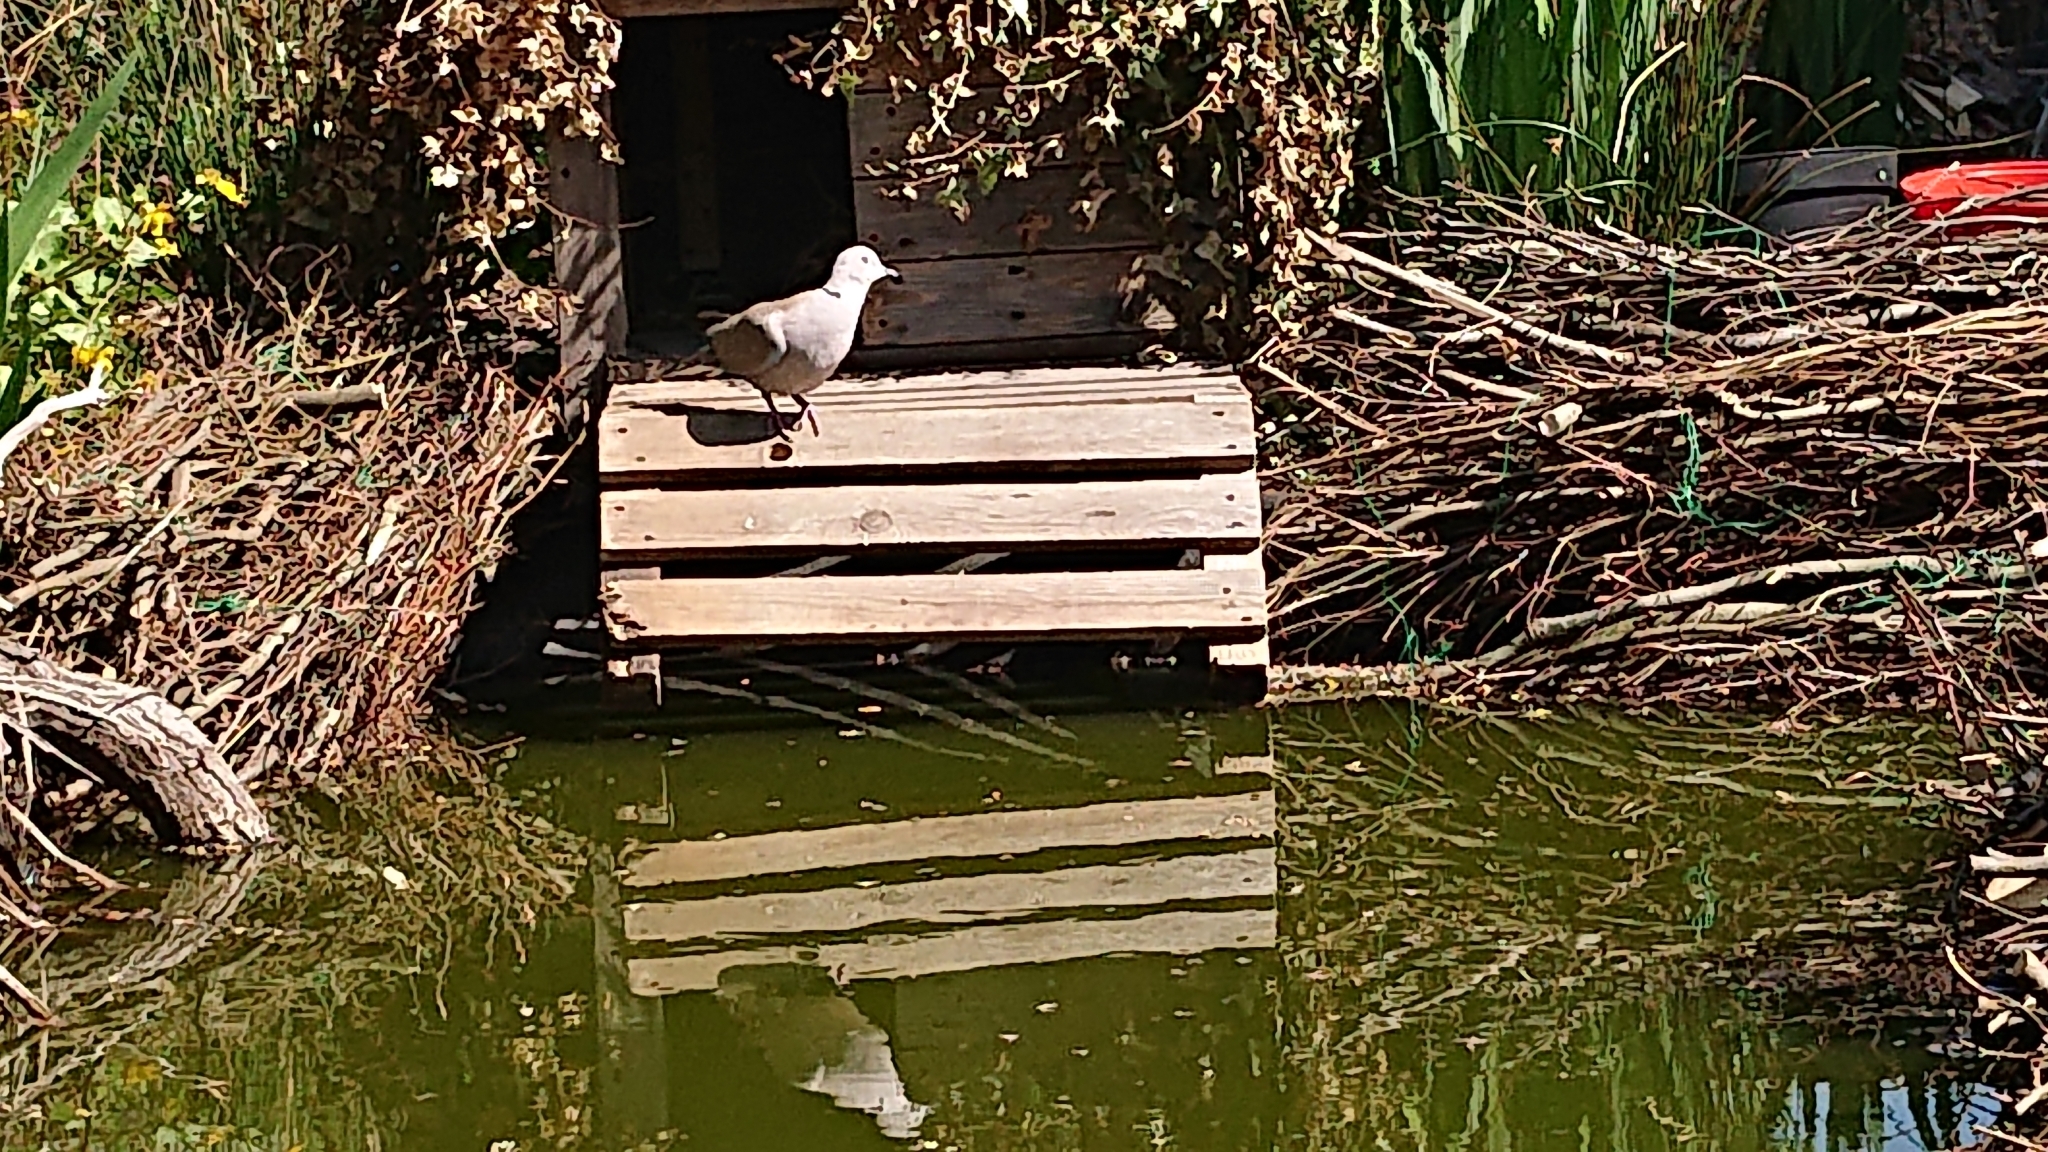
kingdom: Animalia
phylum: Chordata
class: Aves
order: Columbiformes
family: Columbidae
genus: Streptopelia
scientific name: Streptopelia decaocto
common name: Eurasian collared dove
